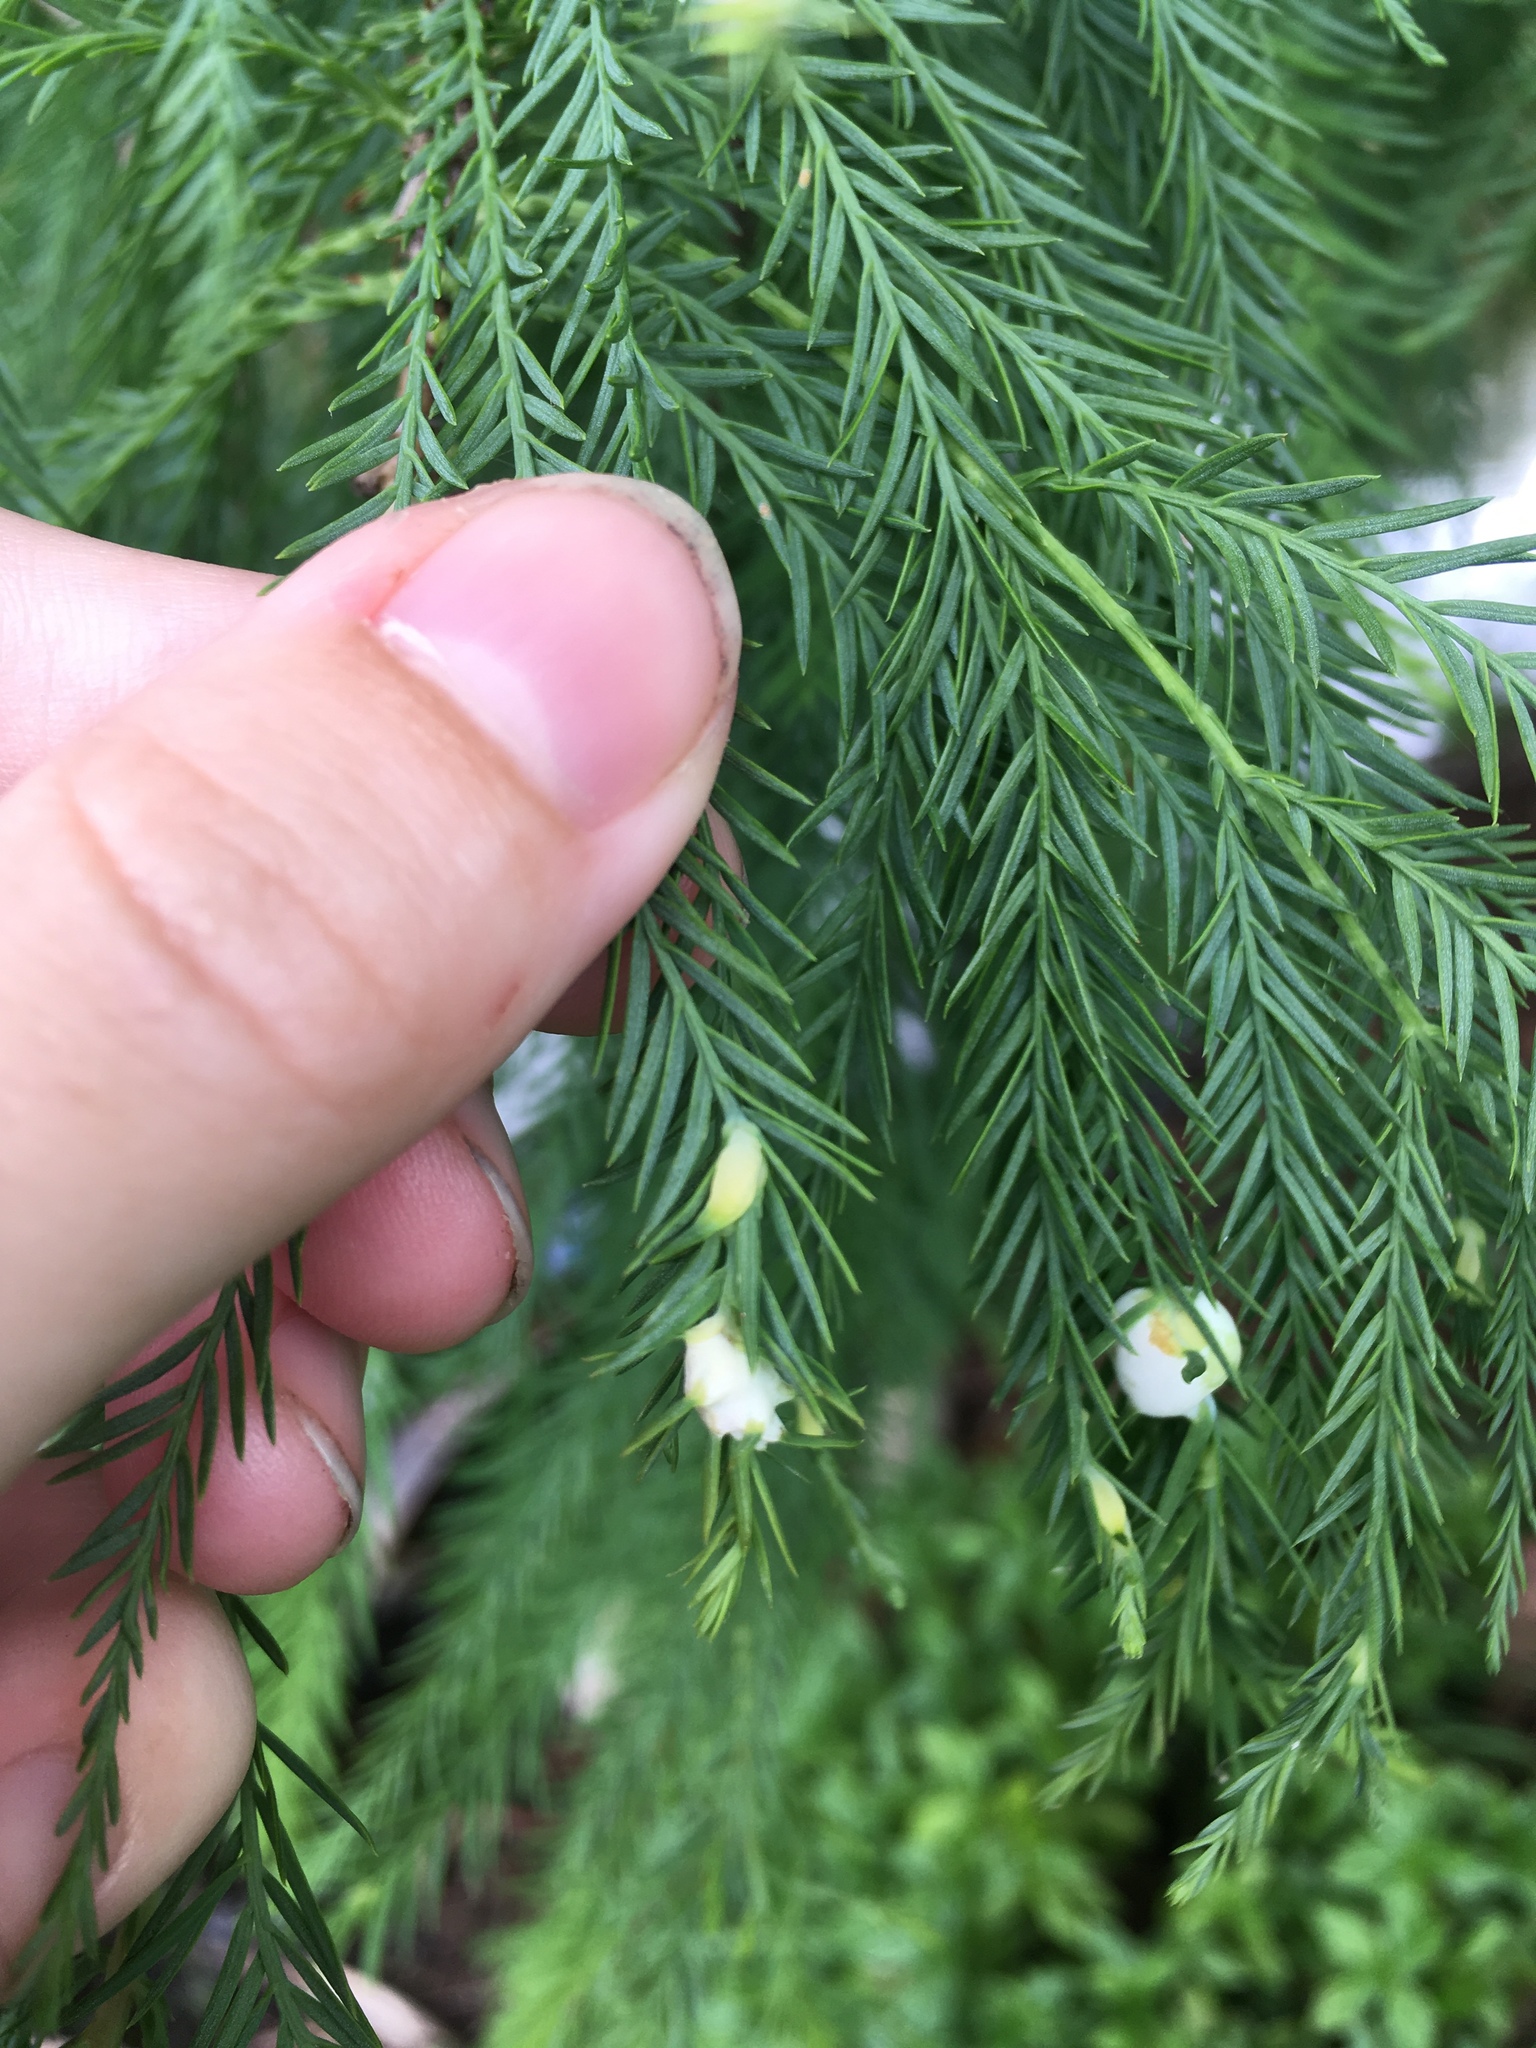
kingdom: Animalia
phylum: Arthropoda
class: Insecta
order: Diptera
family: Cecidomyiidae
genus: Taxodiomyia
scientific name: Taxodiomyia cupressiananassa
